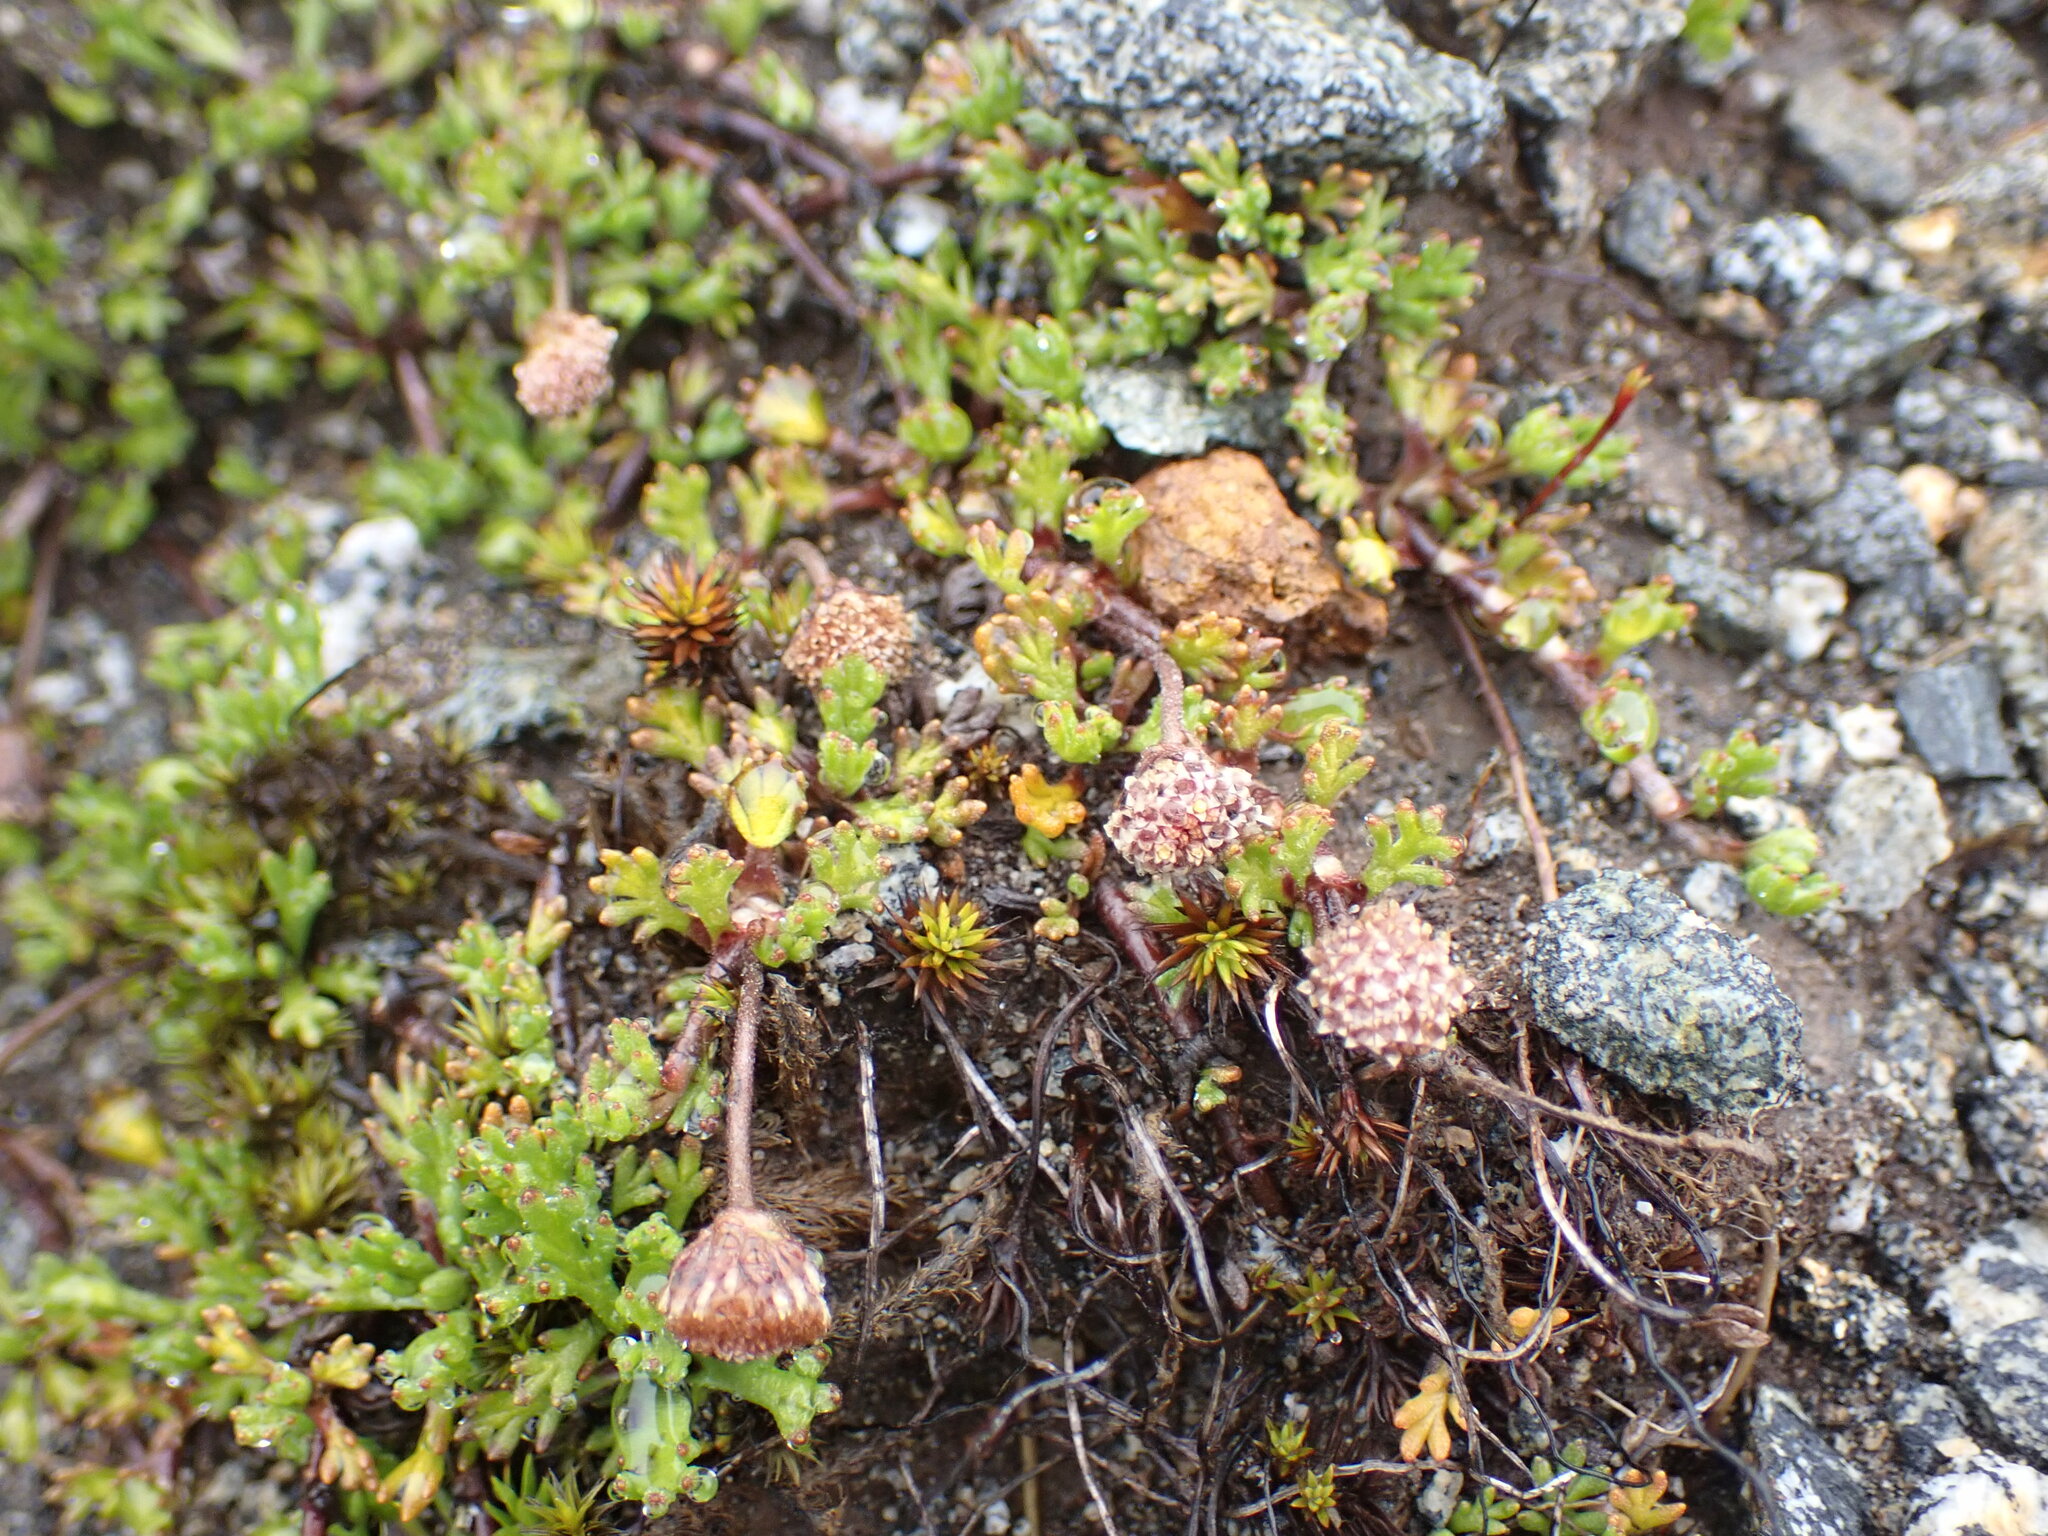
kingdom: Plantae
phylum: Tracheophyta
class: Magnoliopsida
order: Asterales
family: Asteraceae
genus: Leptinella
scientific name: Leptinella pectinata
